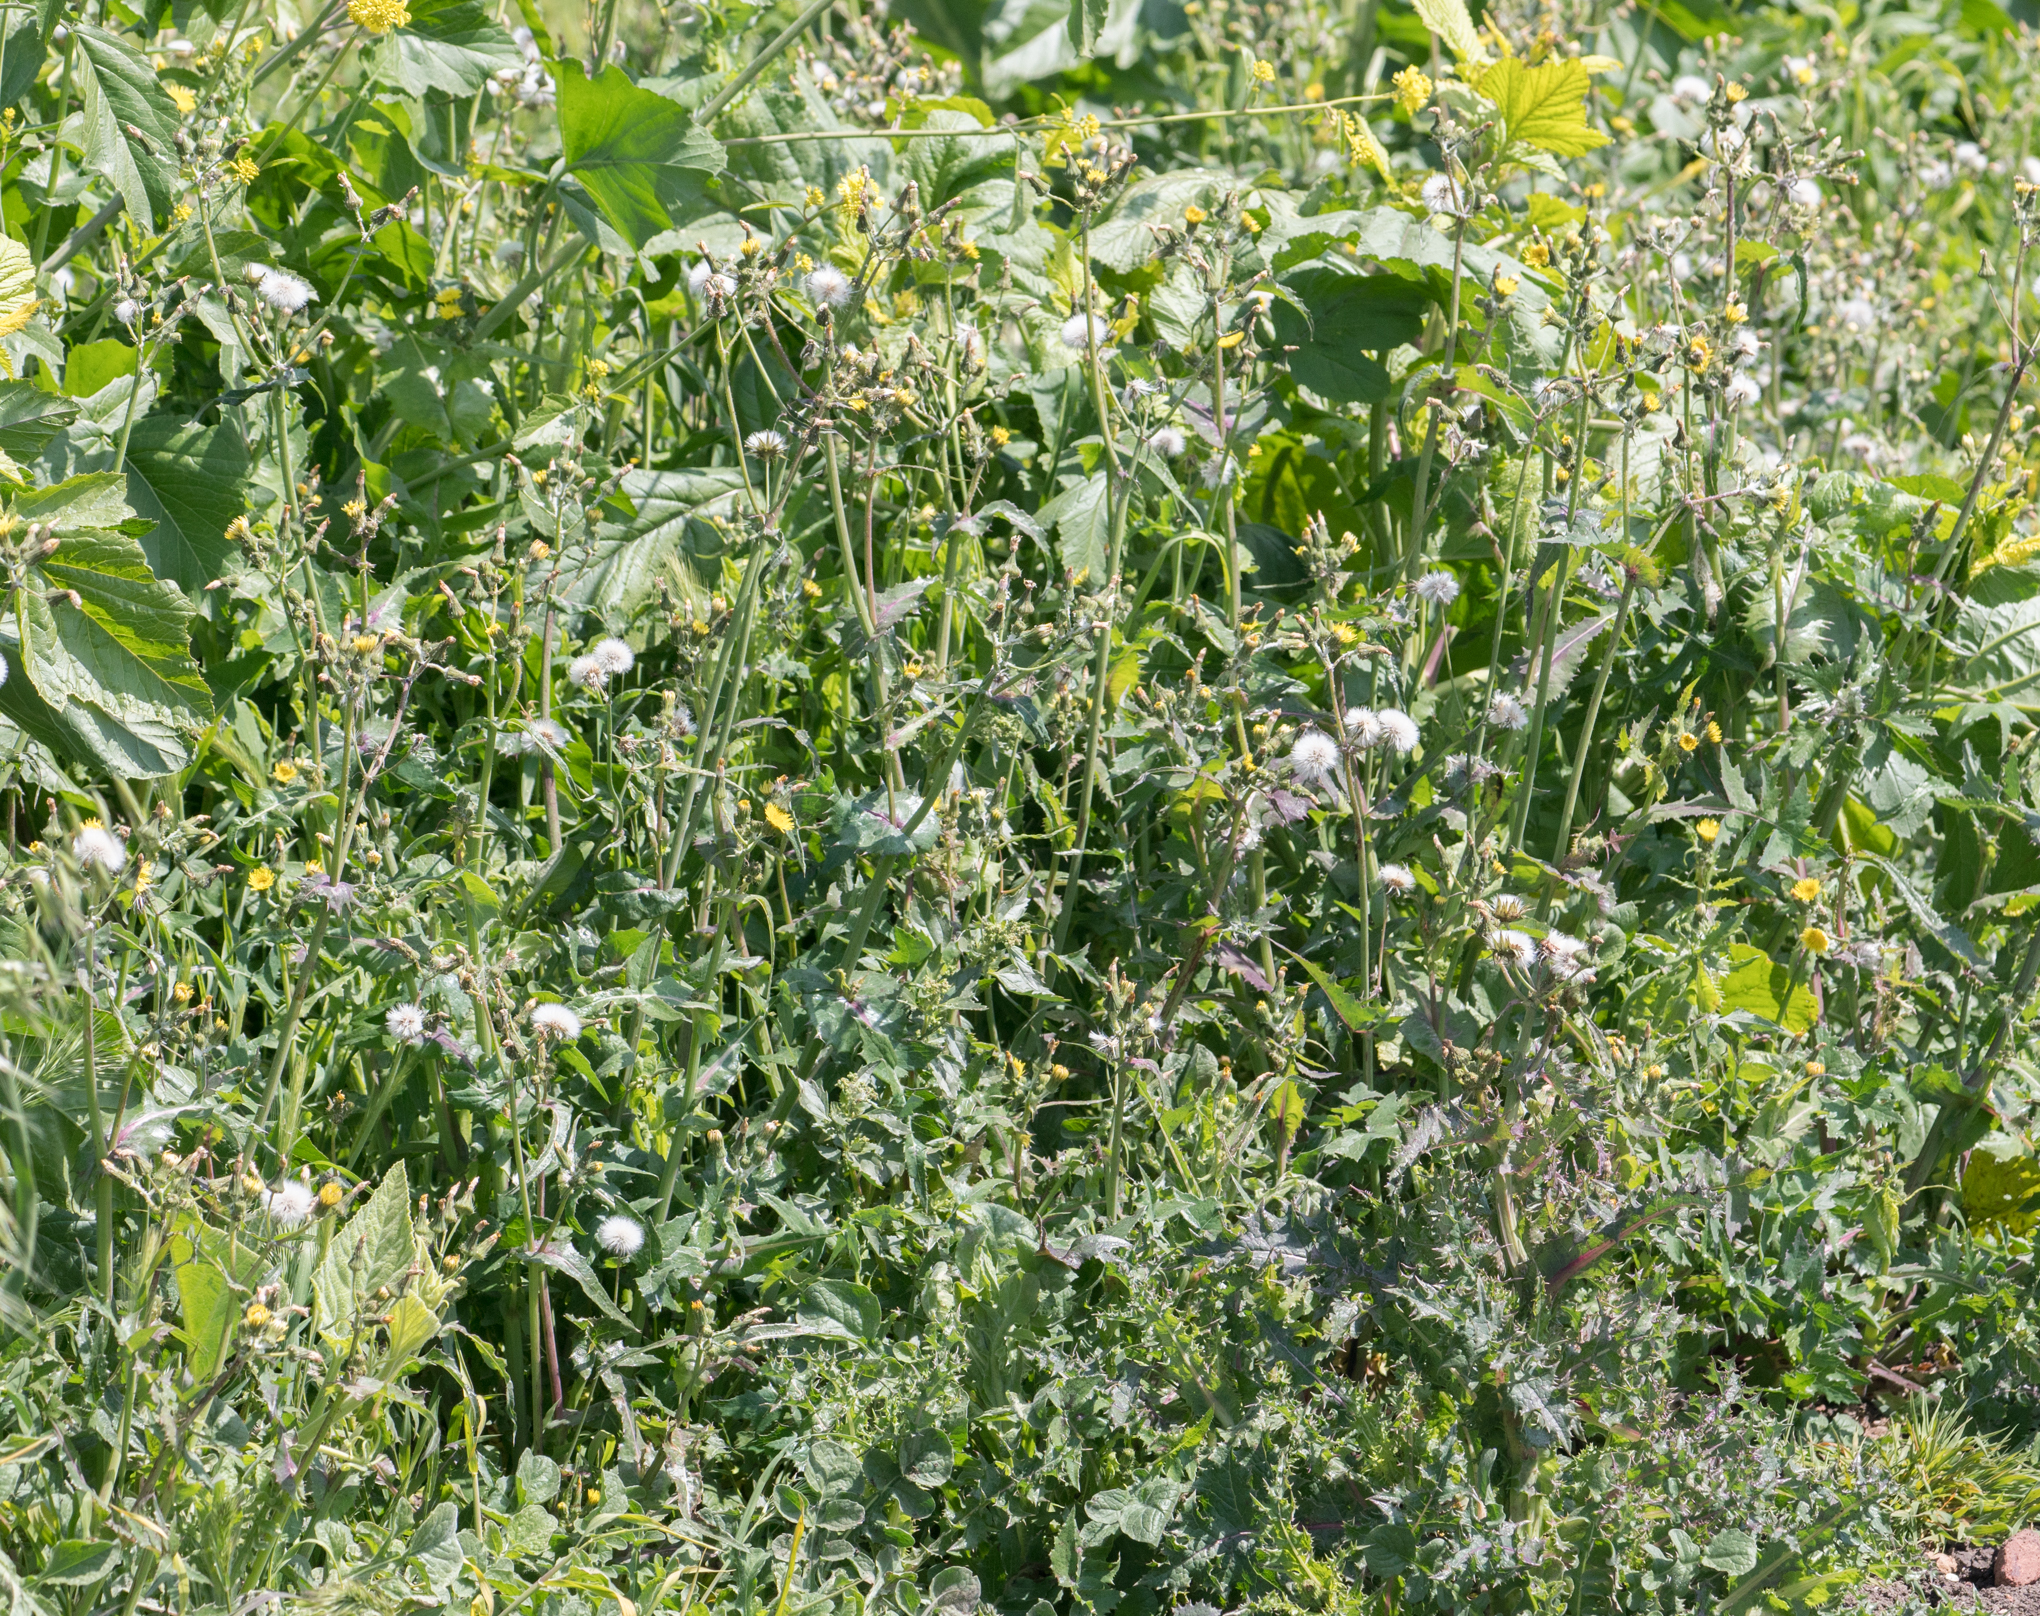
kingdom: Plantae
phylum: Tracheophyta
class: Magnoliopsida
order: Asterales
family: Asteraceae
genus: Sonchus
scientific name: Sonchus oleraceus
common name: Common sowthistle
